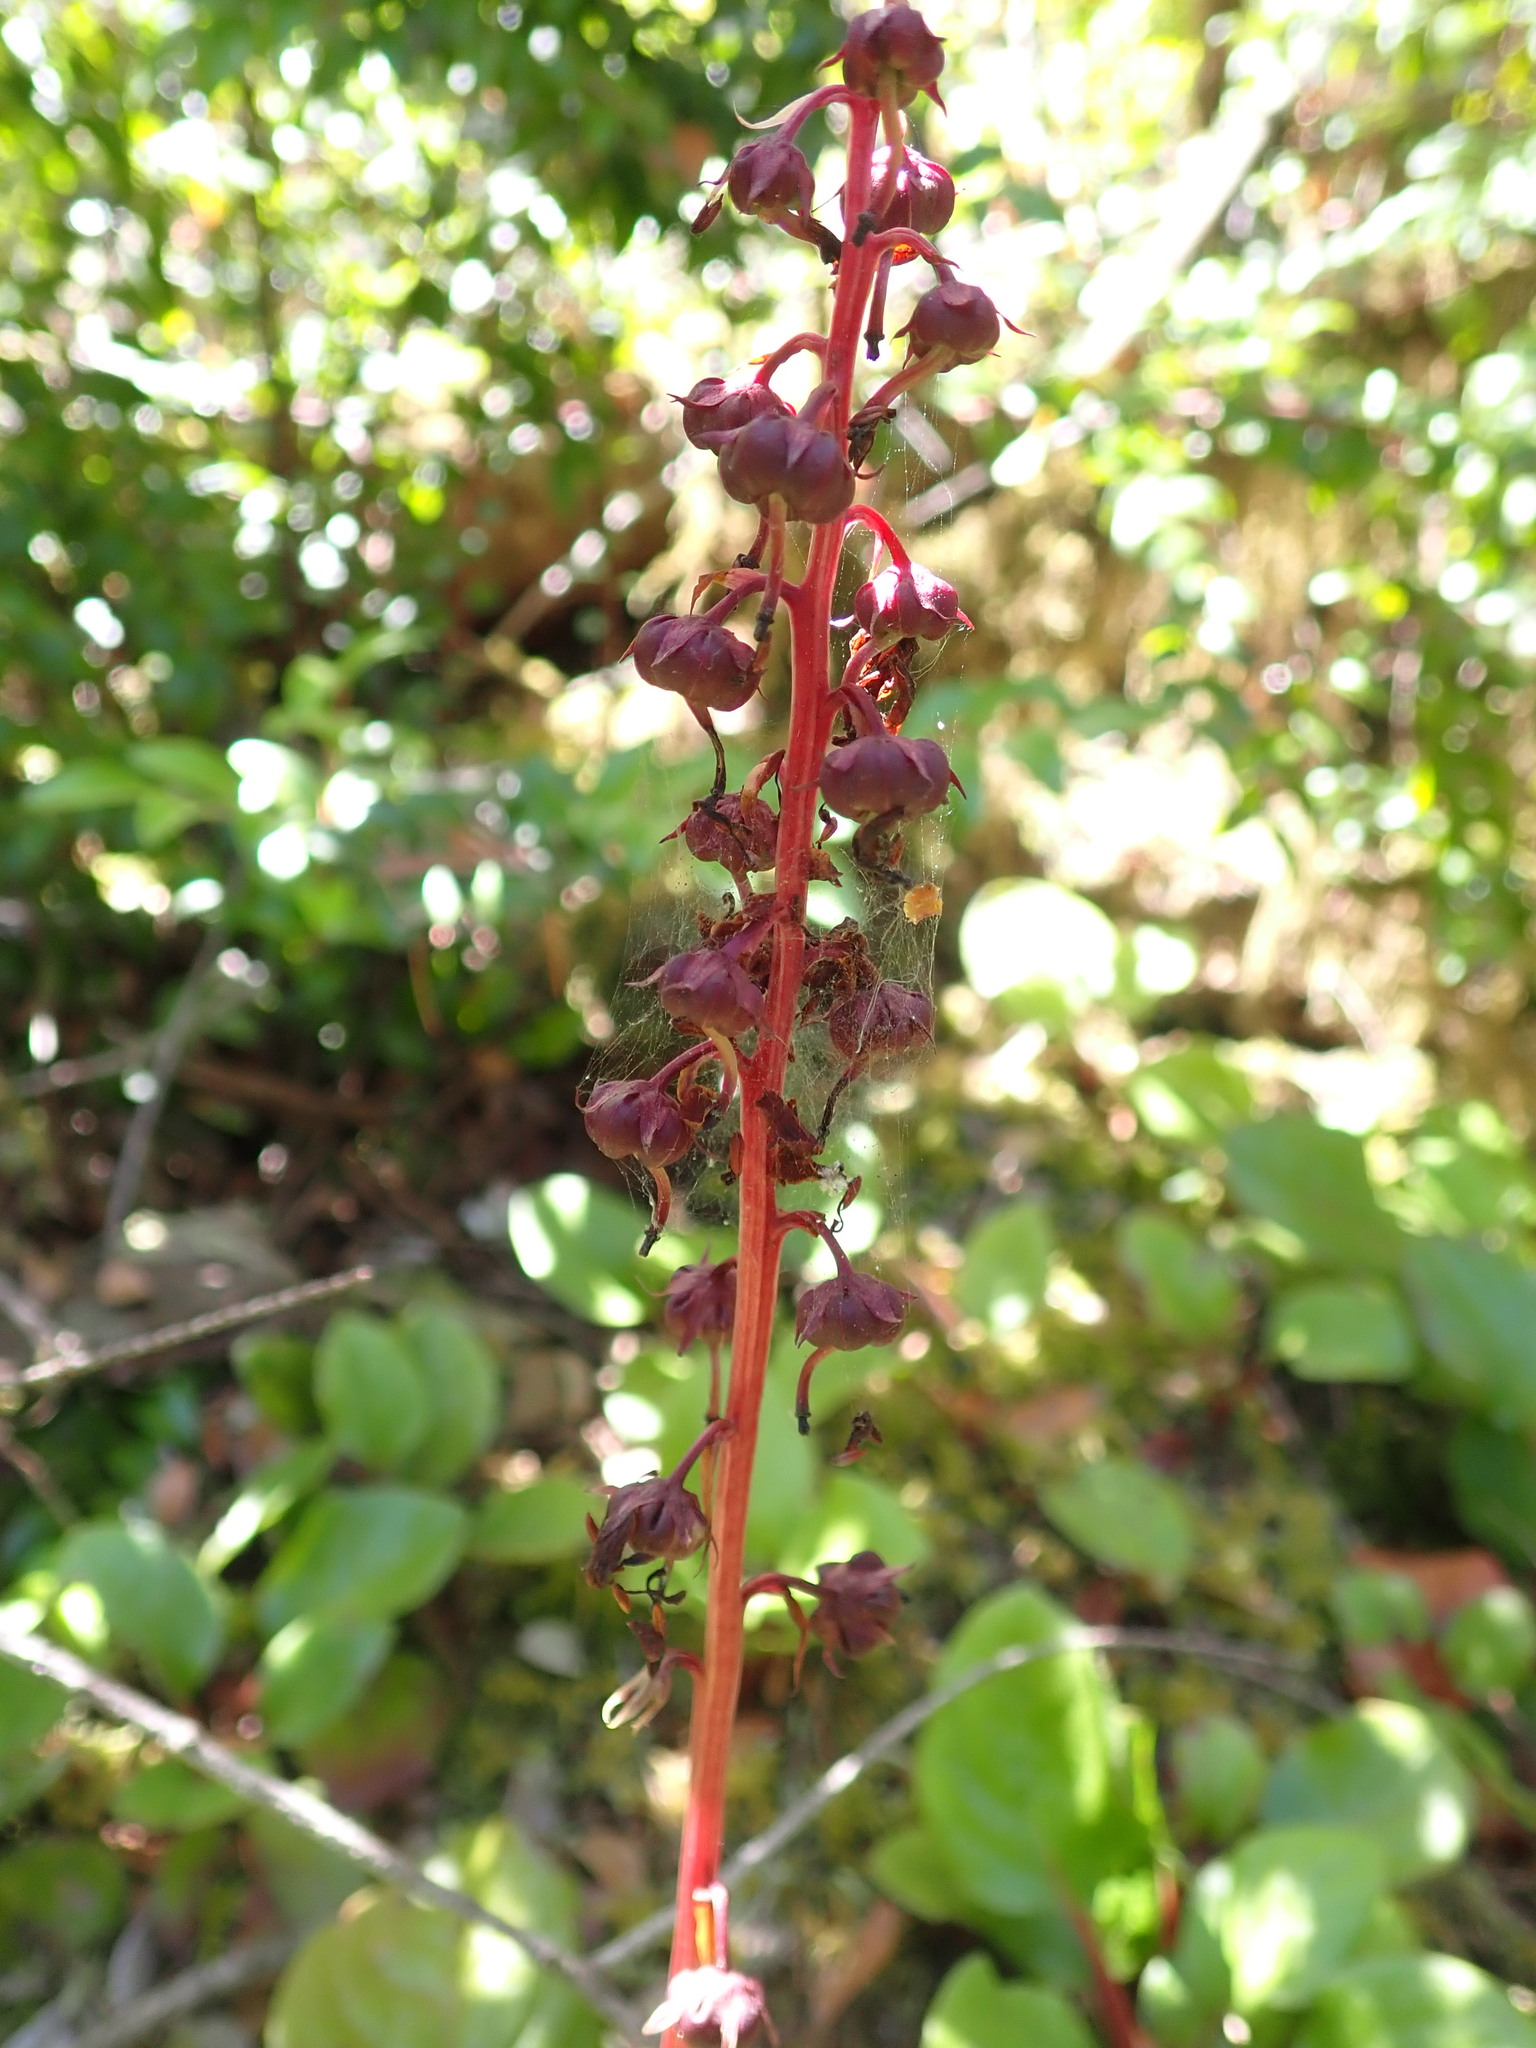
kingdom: Plantae
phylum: Tracheophyta
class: Magnoliopsida
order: Ericales
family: Ericaceae
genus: Pyrola
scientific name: Pyrola asarifolia
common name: Bog wintergreen
